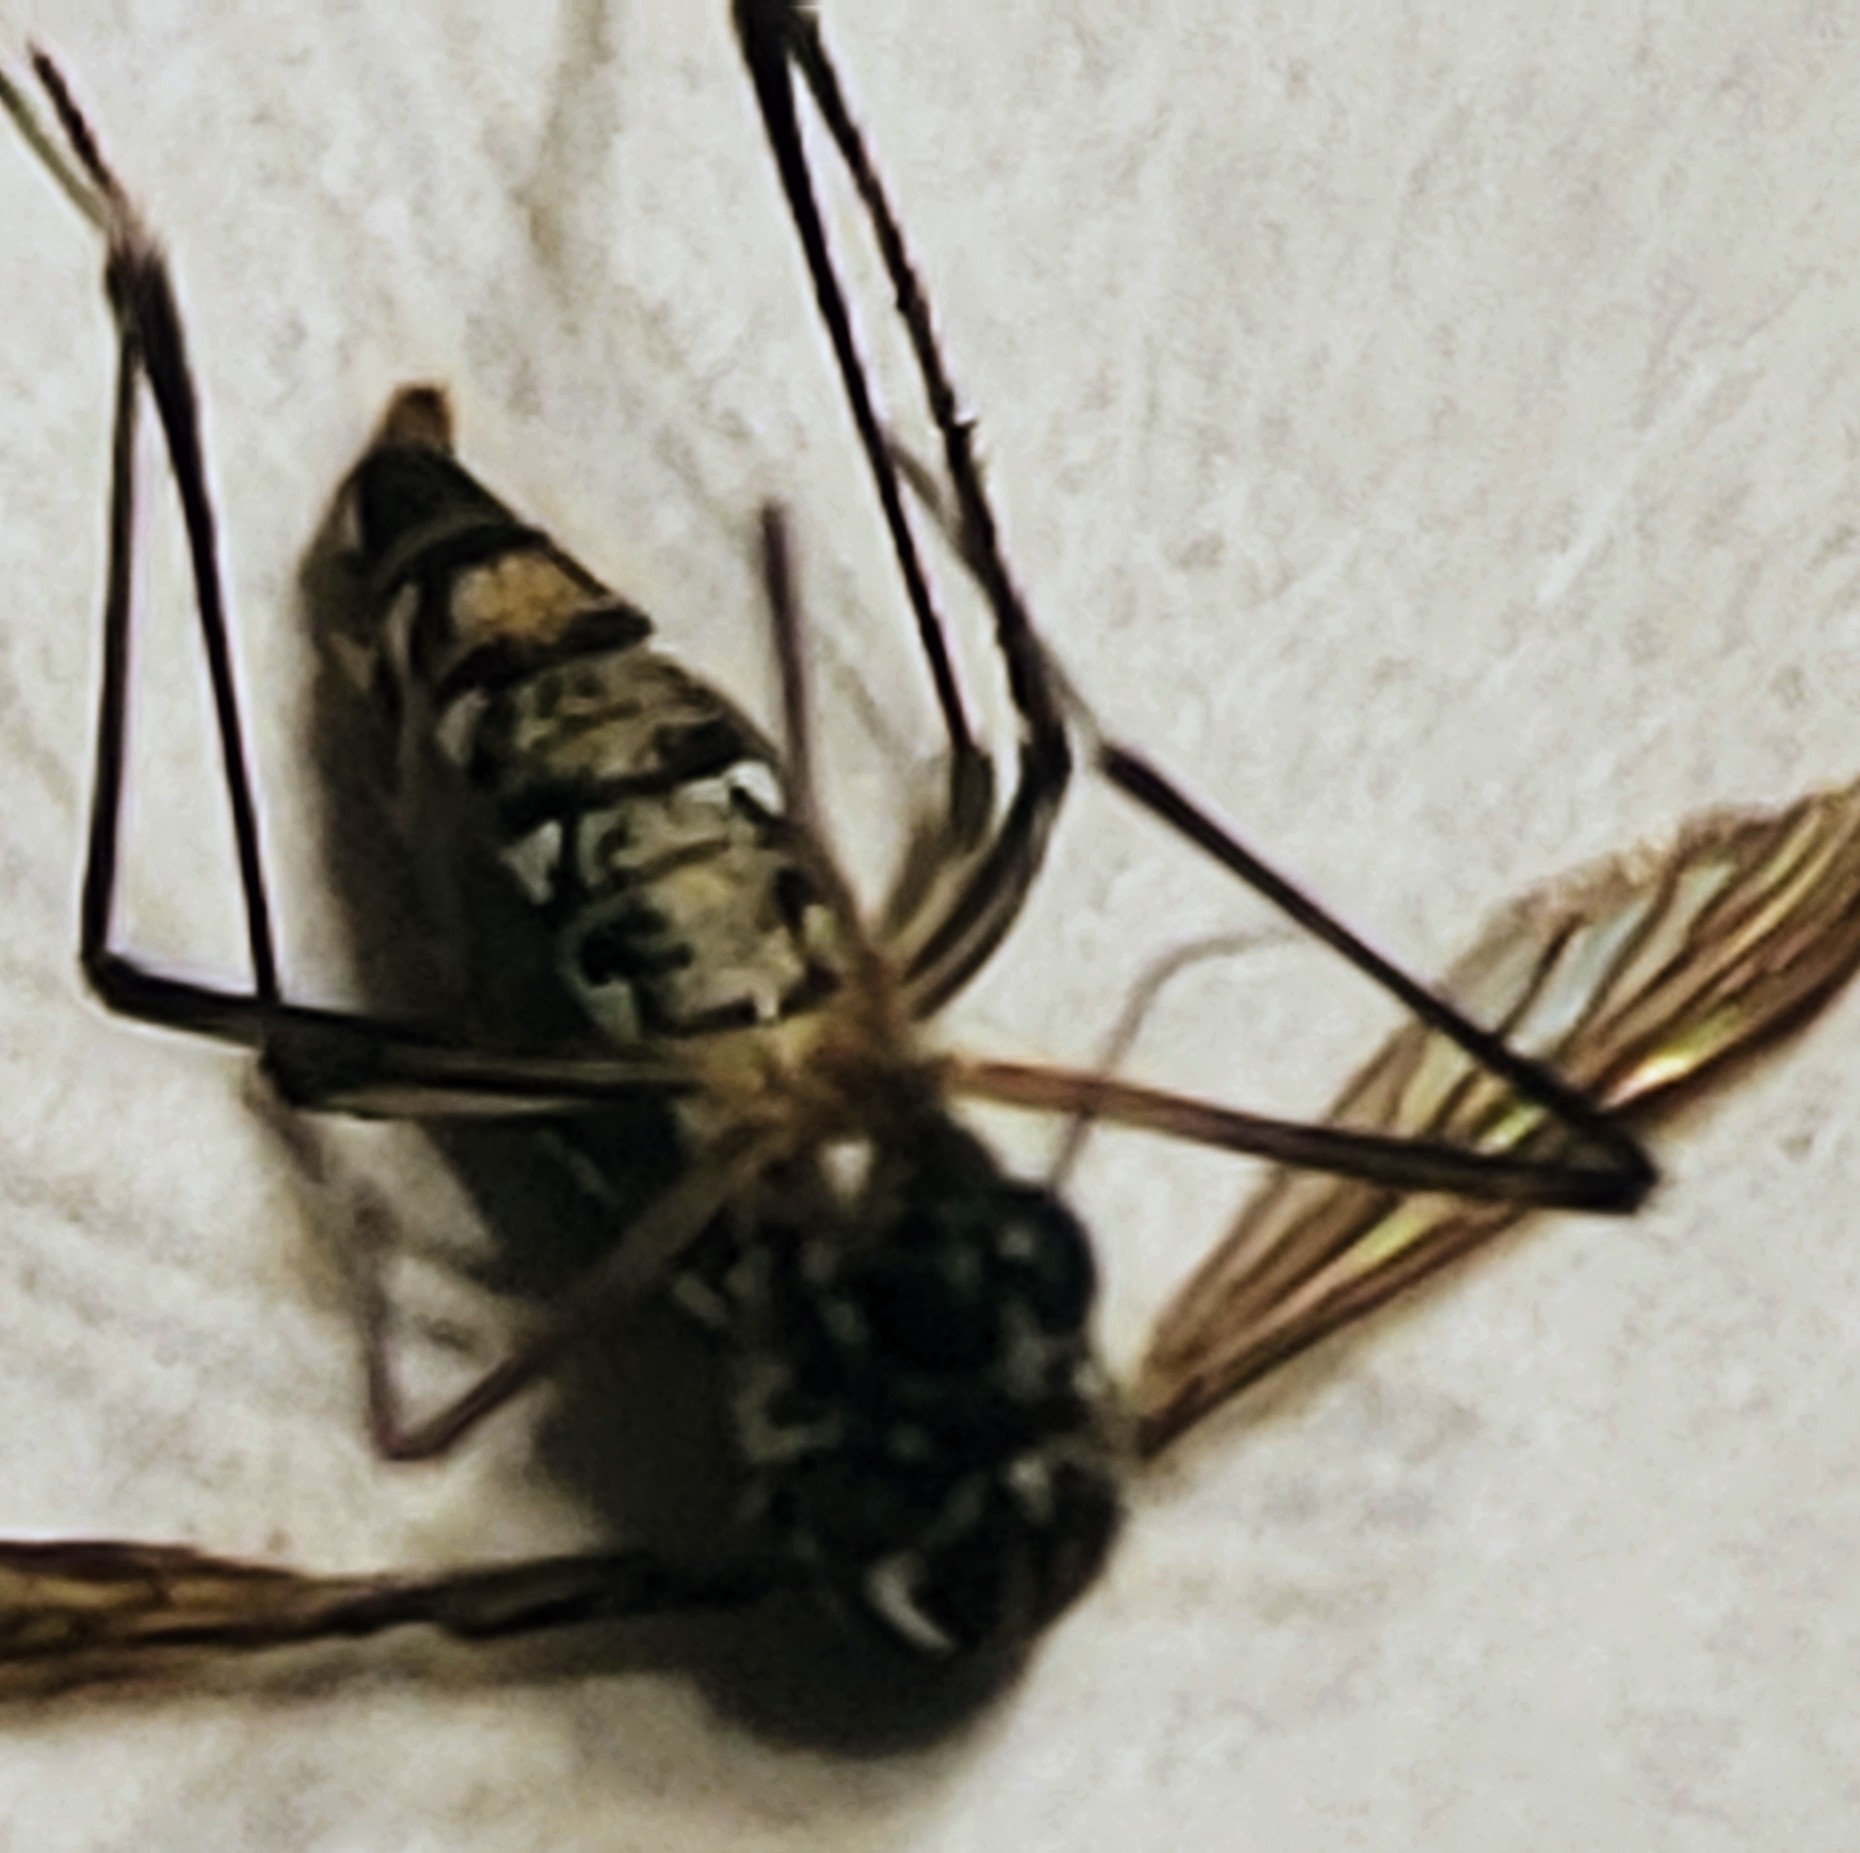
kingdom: Animalia
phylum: Arthropoda
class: Insecta
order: Diptera
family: Culicidae
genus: Aedes
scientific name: Aedes aegypti
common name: Yellow fever mosquito
